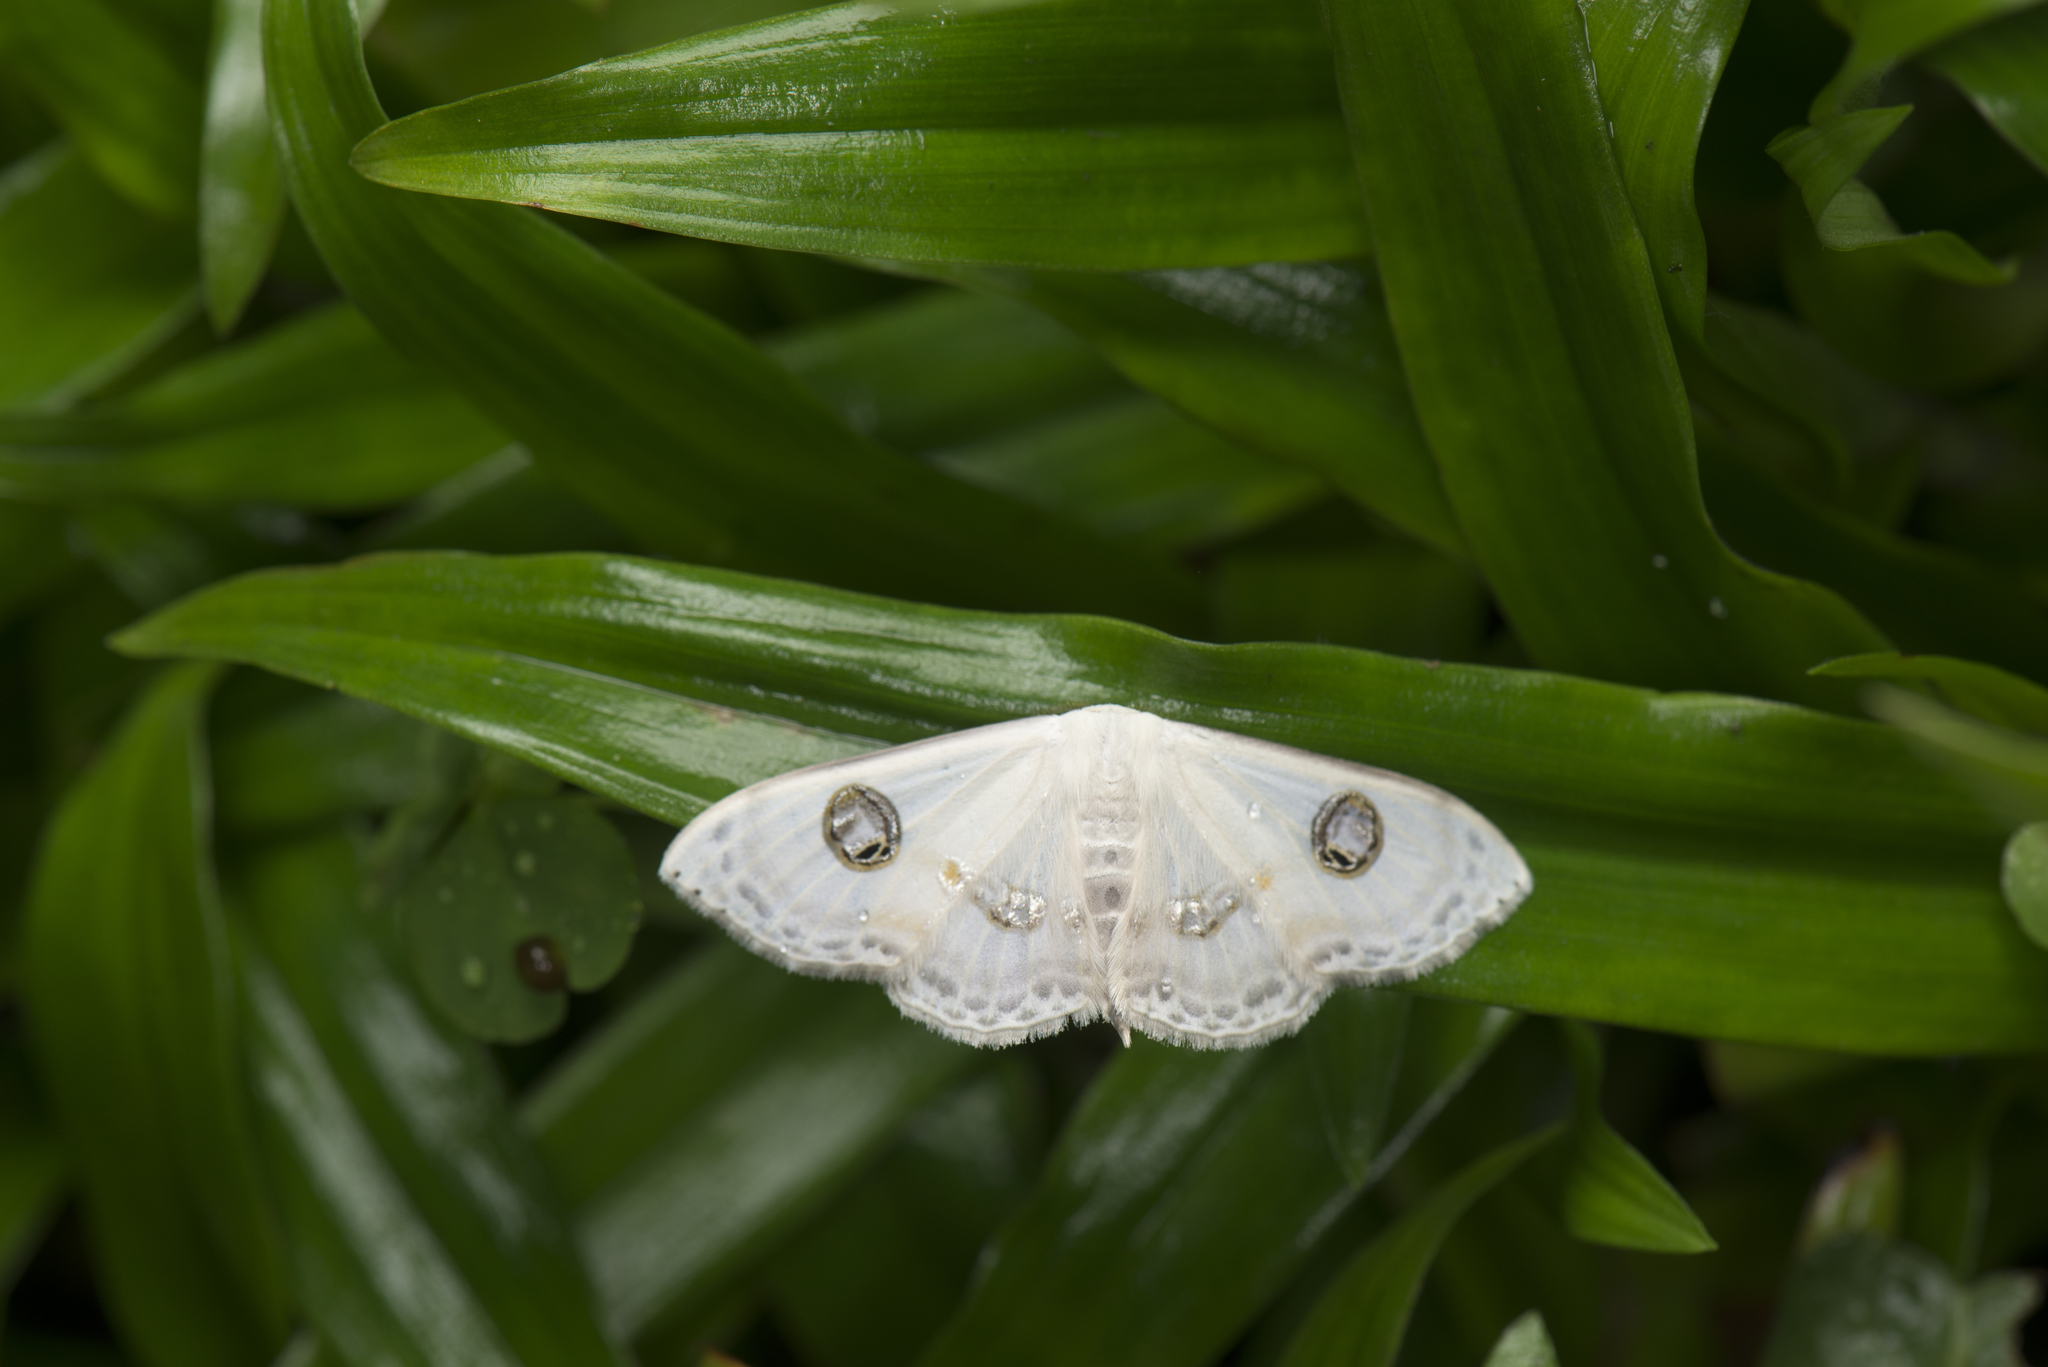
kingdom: Animalia
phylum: Arthropoda
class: Insecta
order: Lepidoptera
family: Geometridae
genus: Problepsis
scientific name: Problepsis albidior
